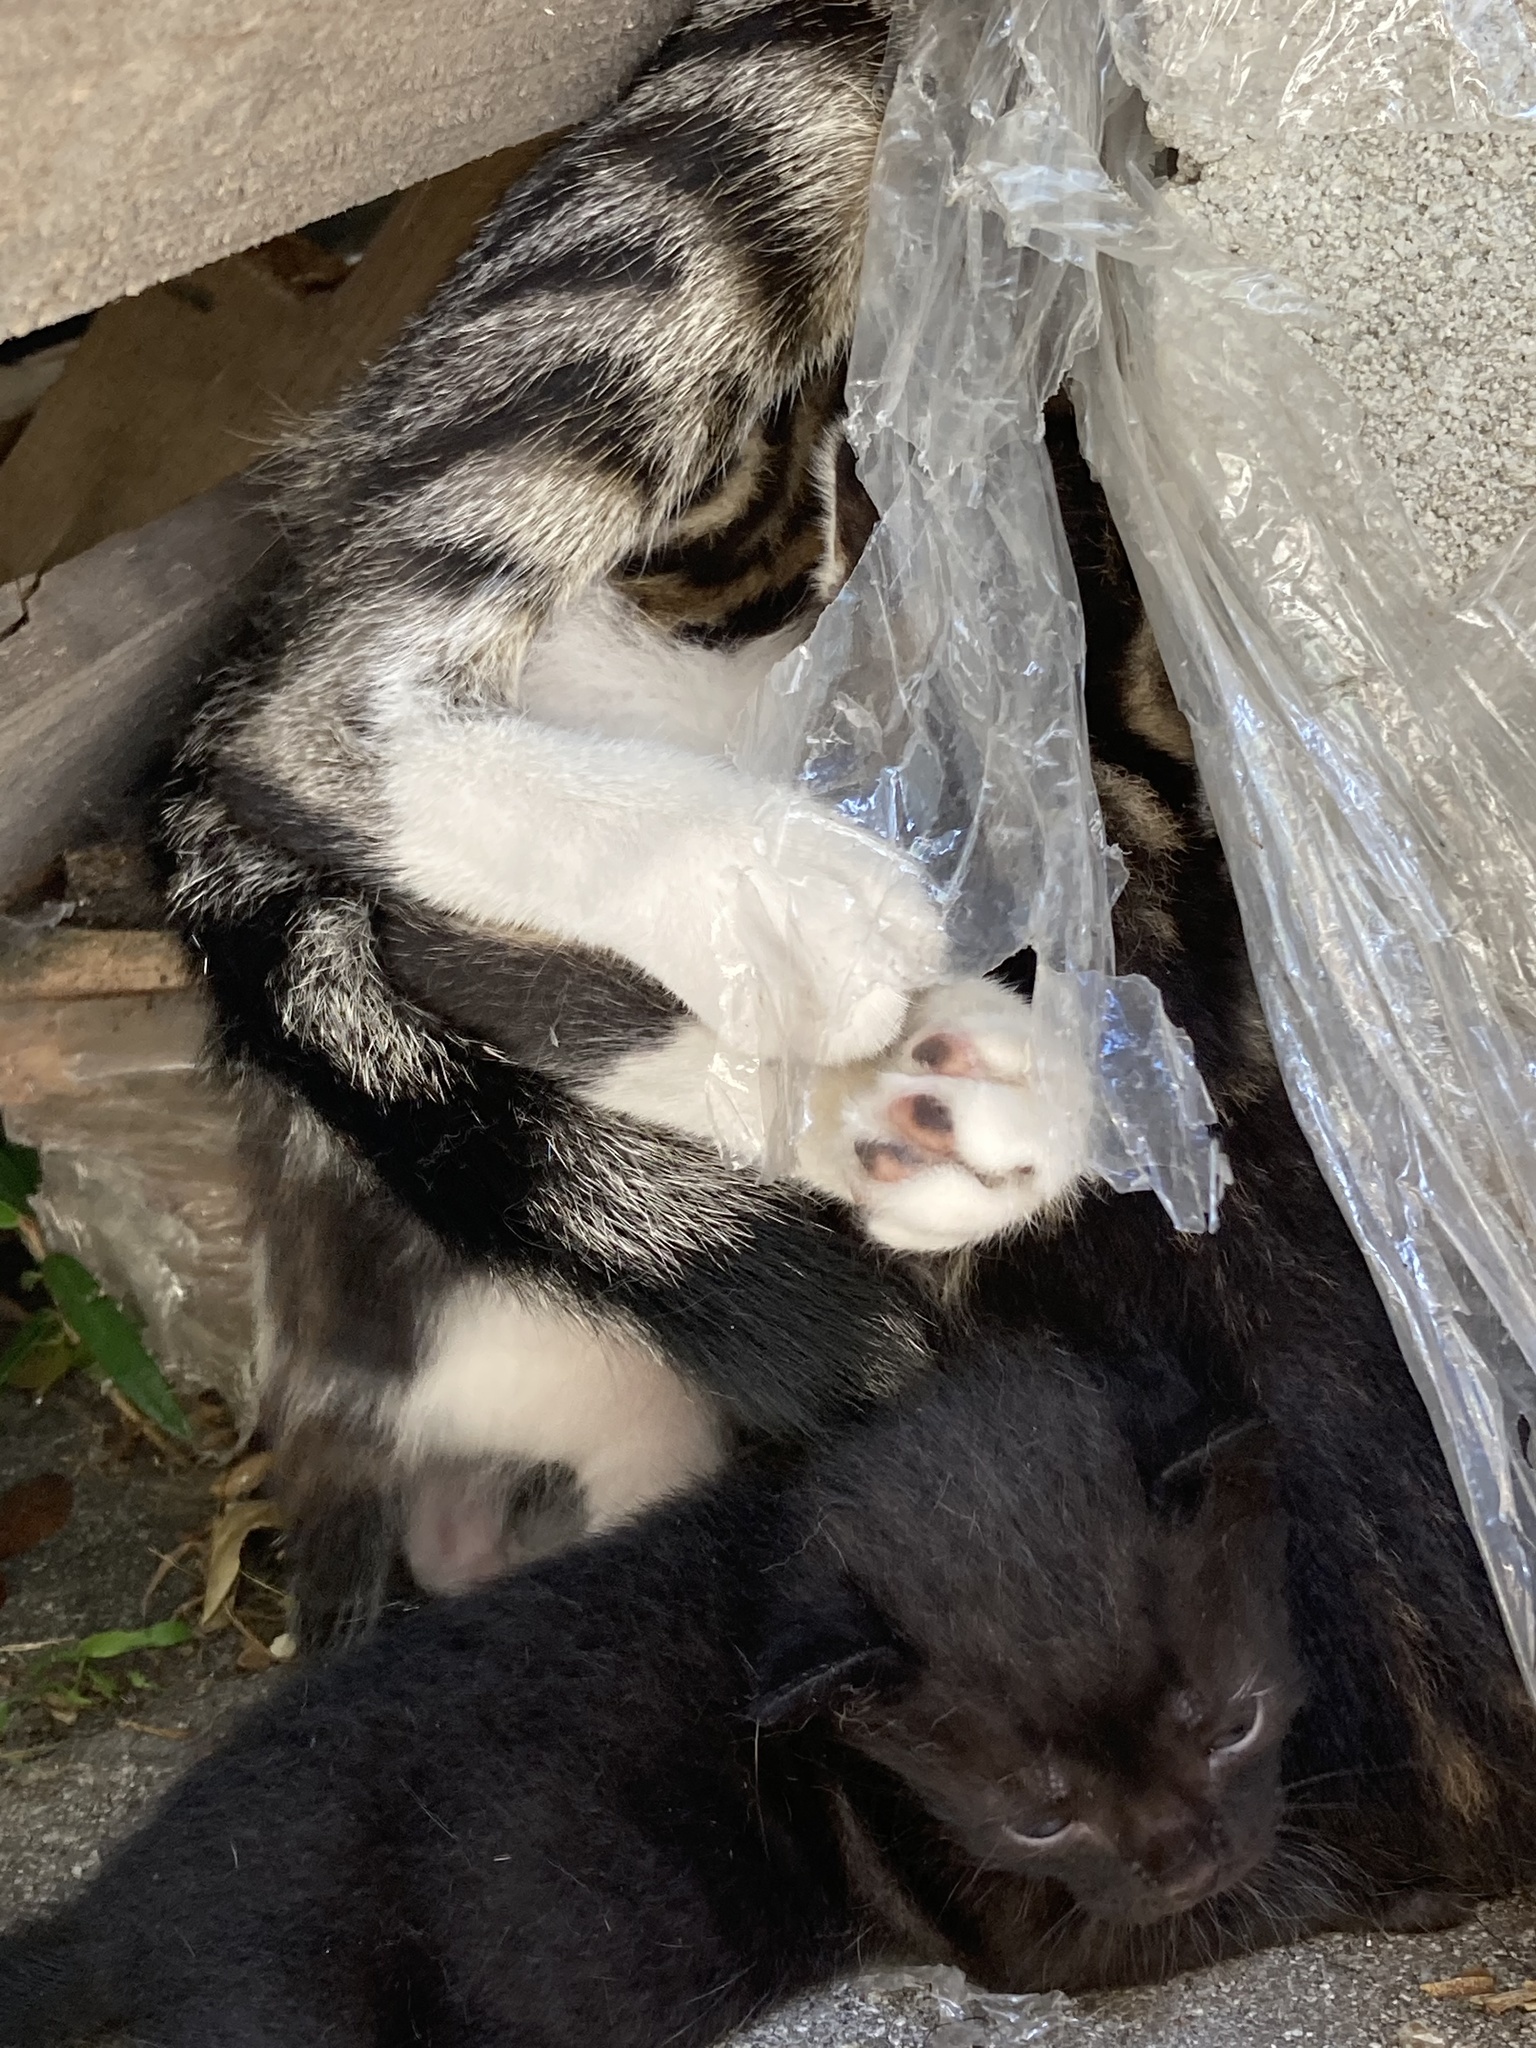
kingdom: Animalia
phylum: Chordata
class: Mammalia
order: Carnivora
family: Felidae
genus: Felis
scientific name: Felis catus
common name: Domestic cat
